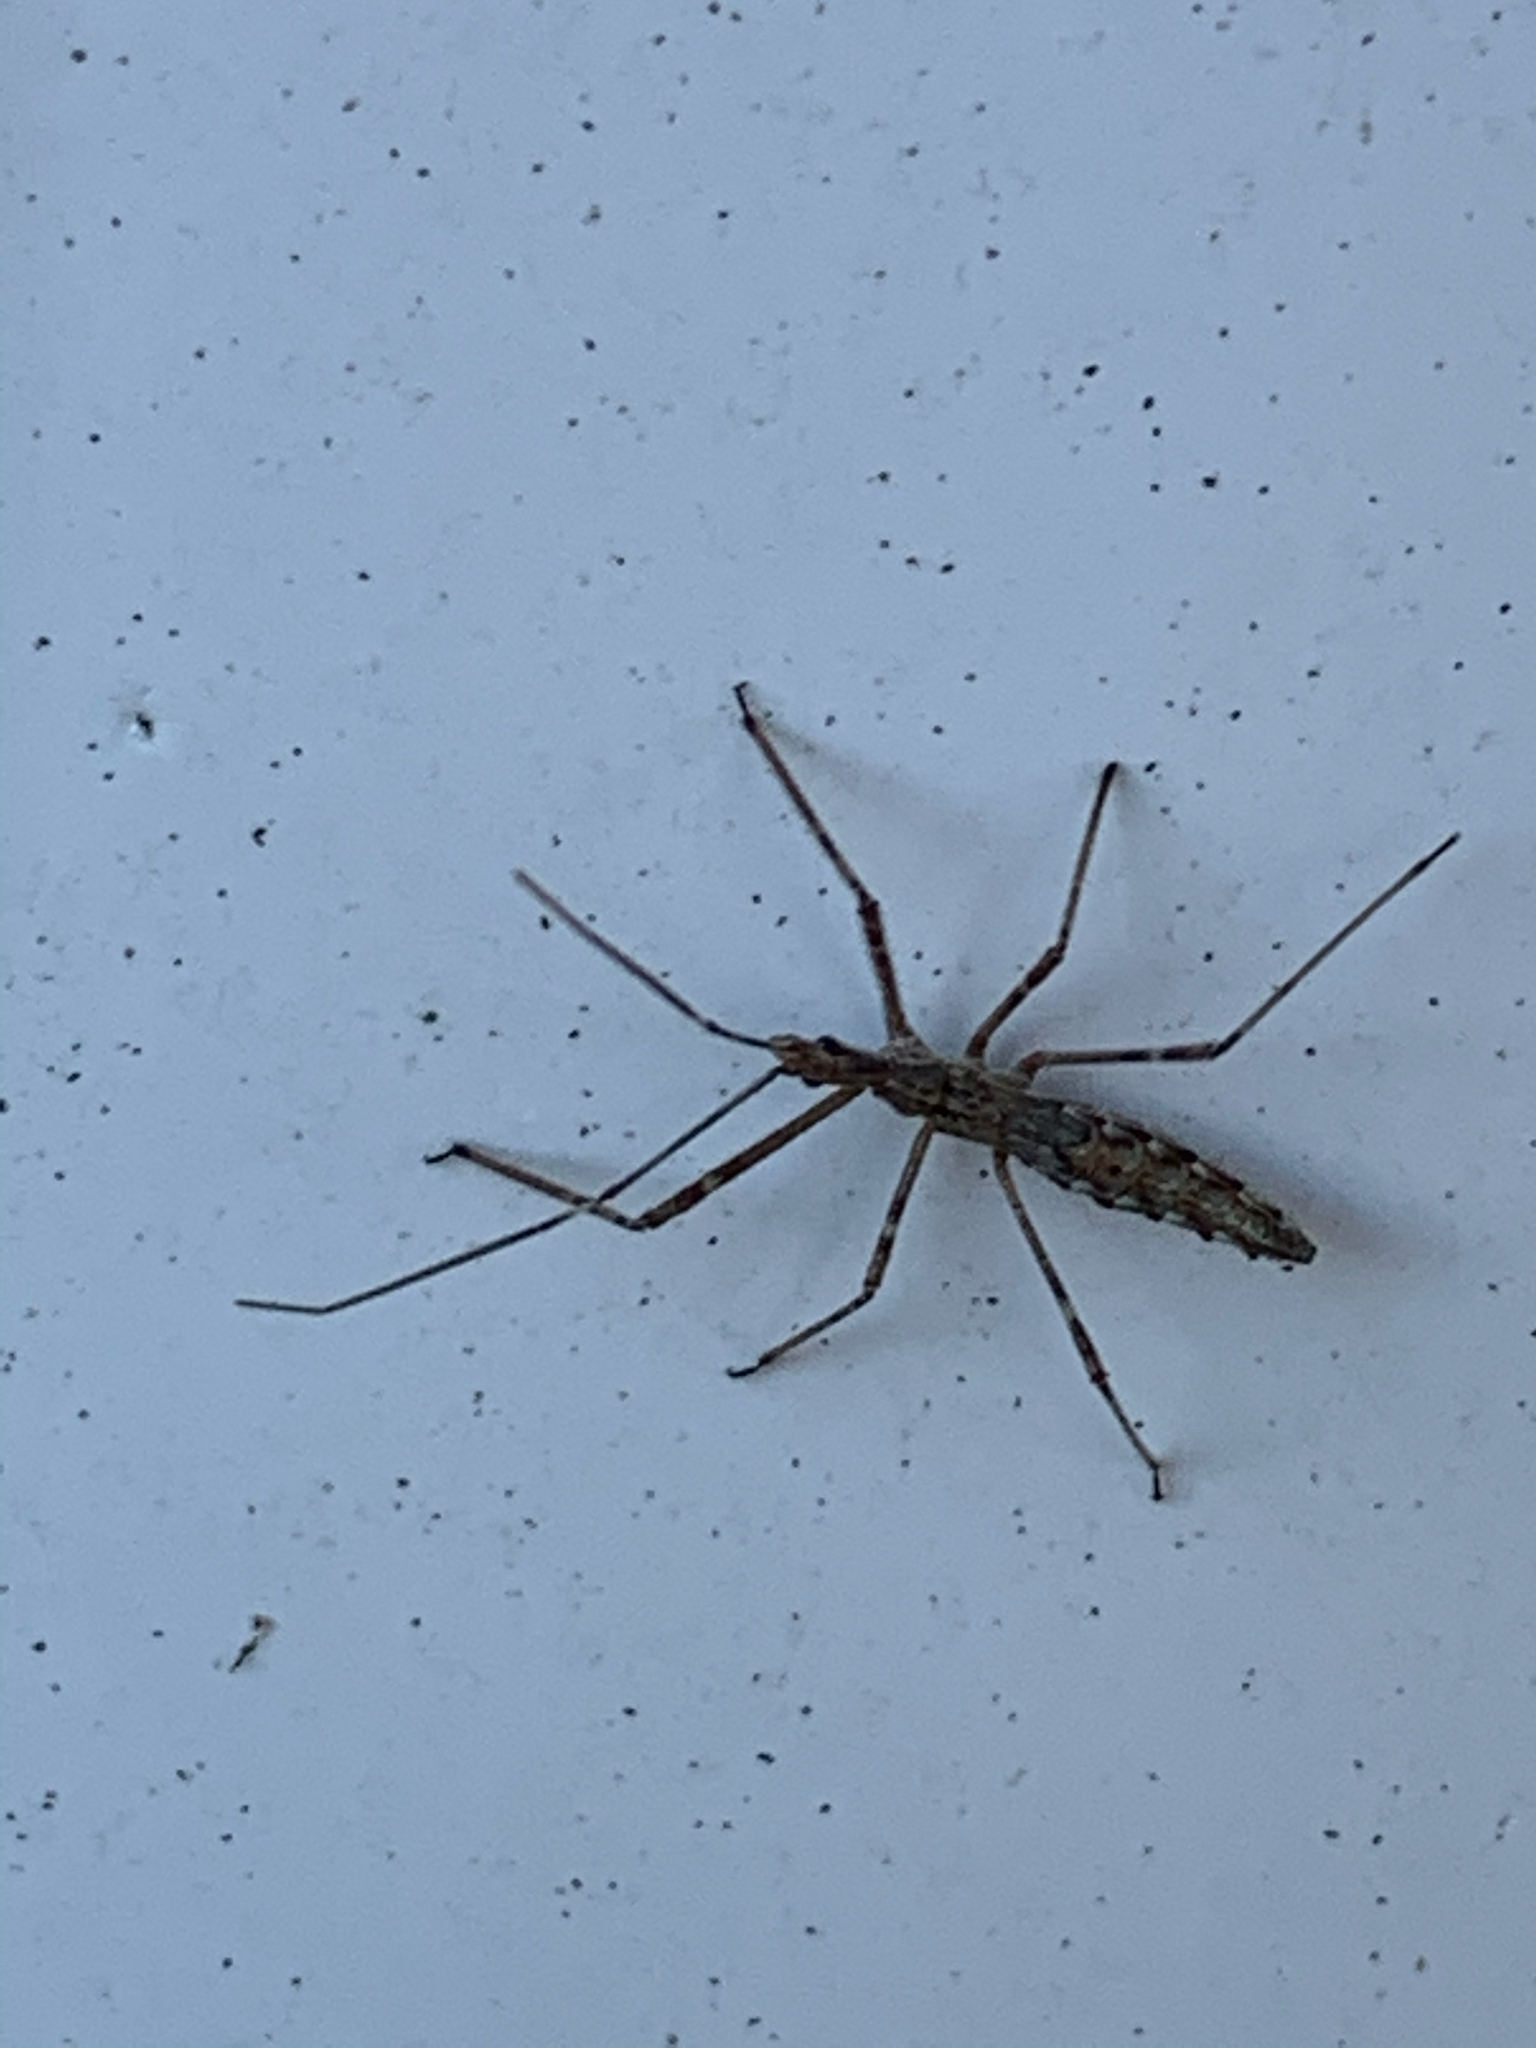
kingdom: Animalia
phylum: Arthropoda
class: Insecta
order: Hemiptera
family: Reduviidae
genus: Zelus
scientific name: Zelus tetracanthus
